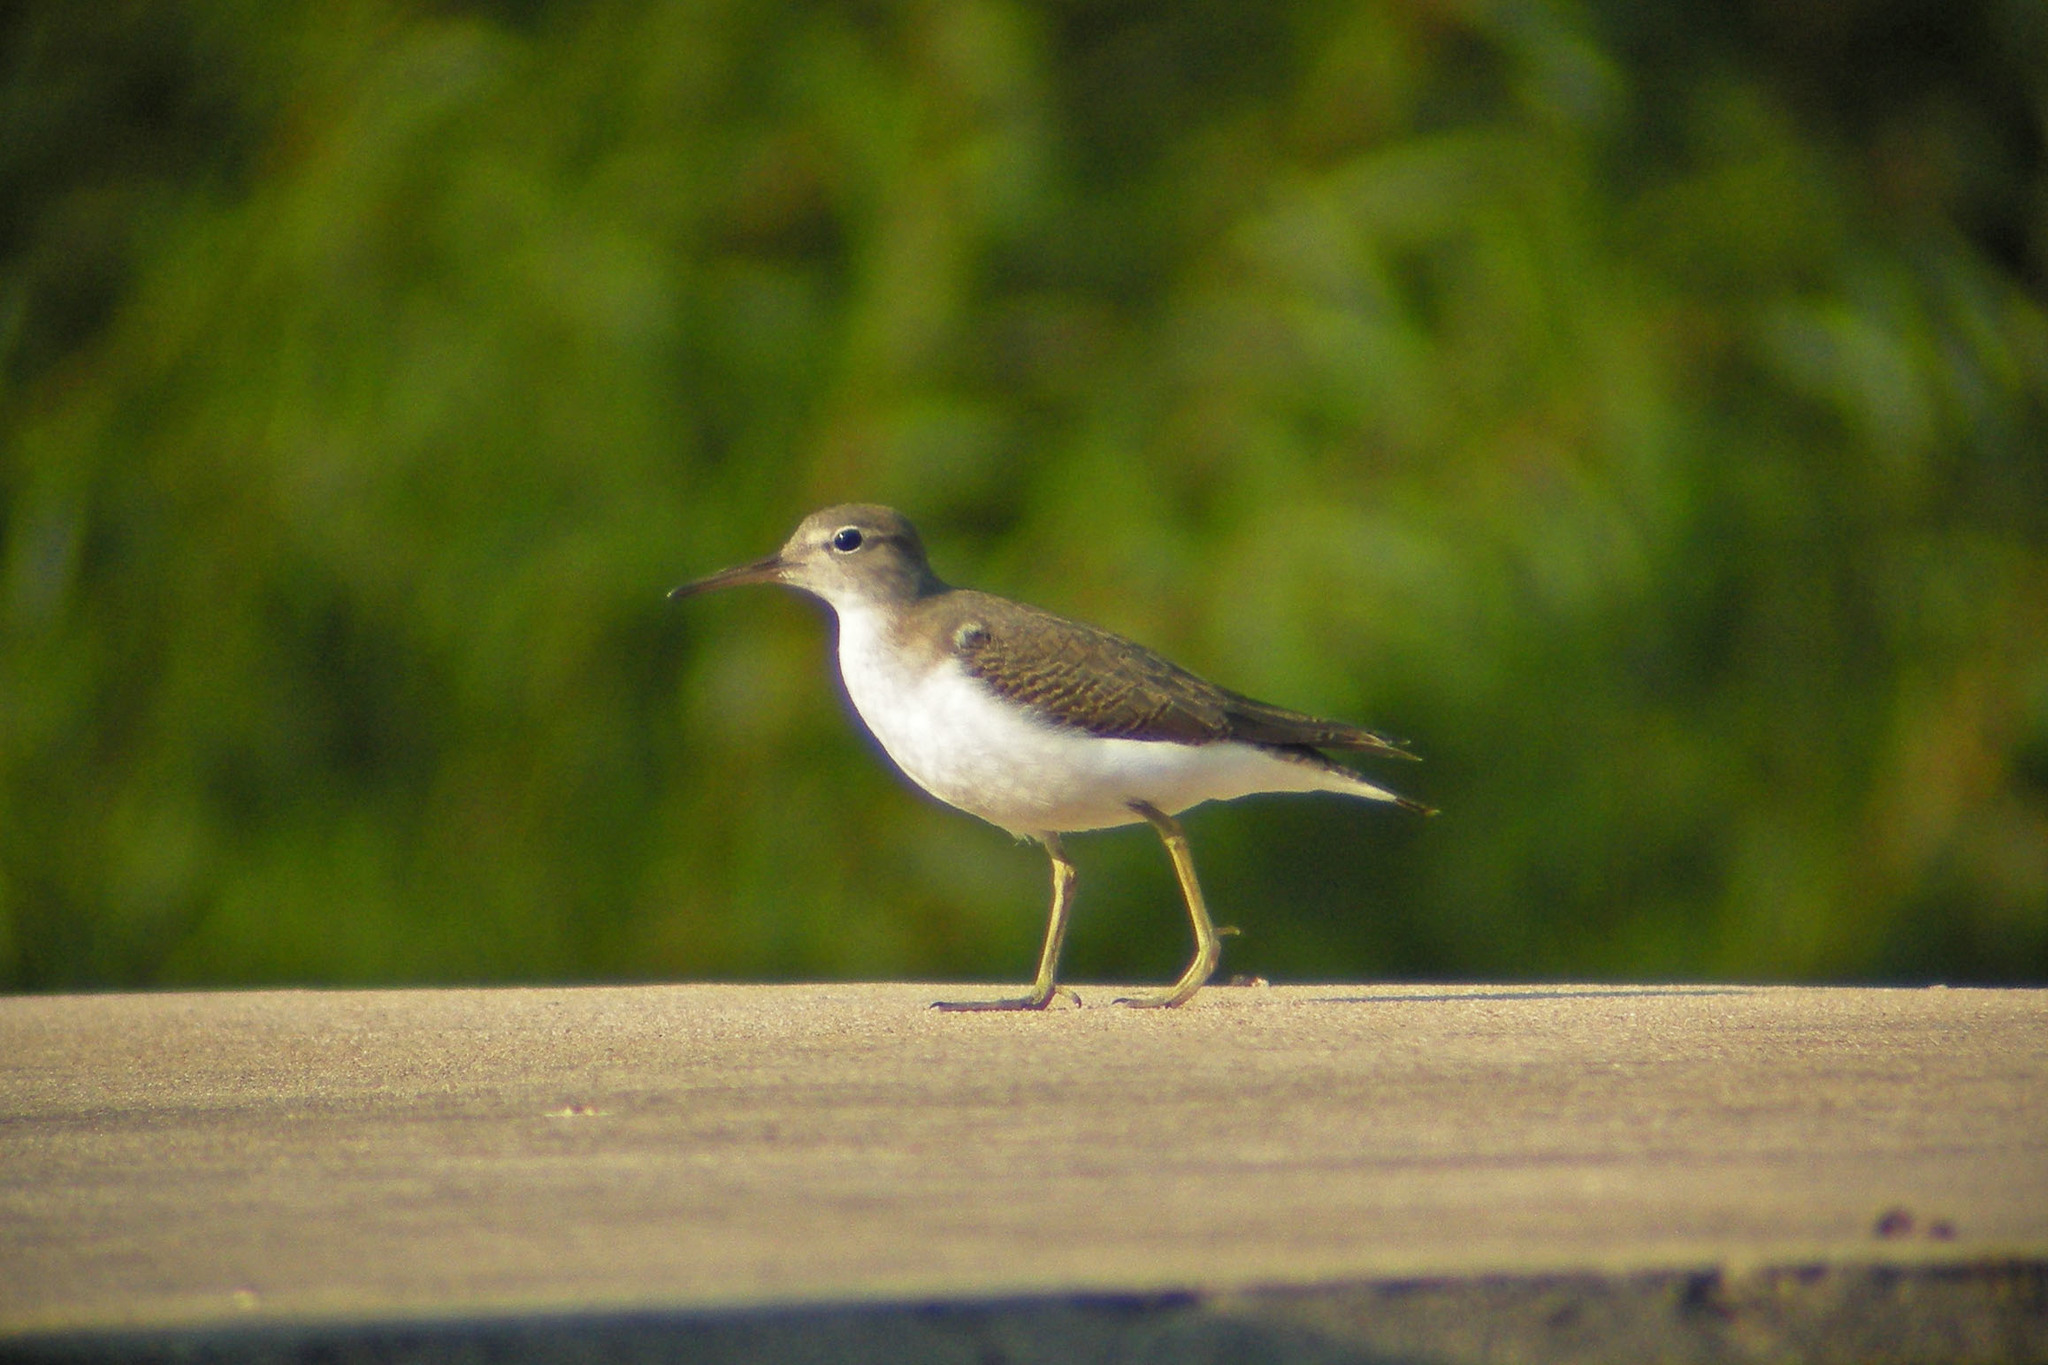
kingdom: Animalia
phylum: Chordata
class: Aves
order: Charadriiformes
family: Scolopacidae
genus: Actitis
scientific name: Actitis macularius
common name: Spotted sandpiper
